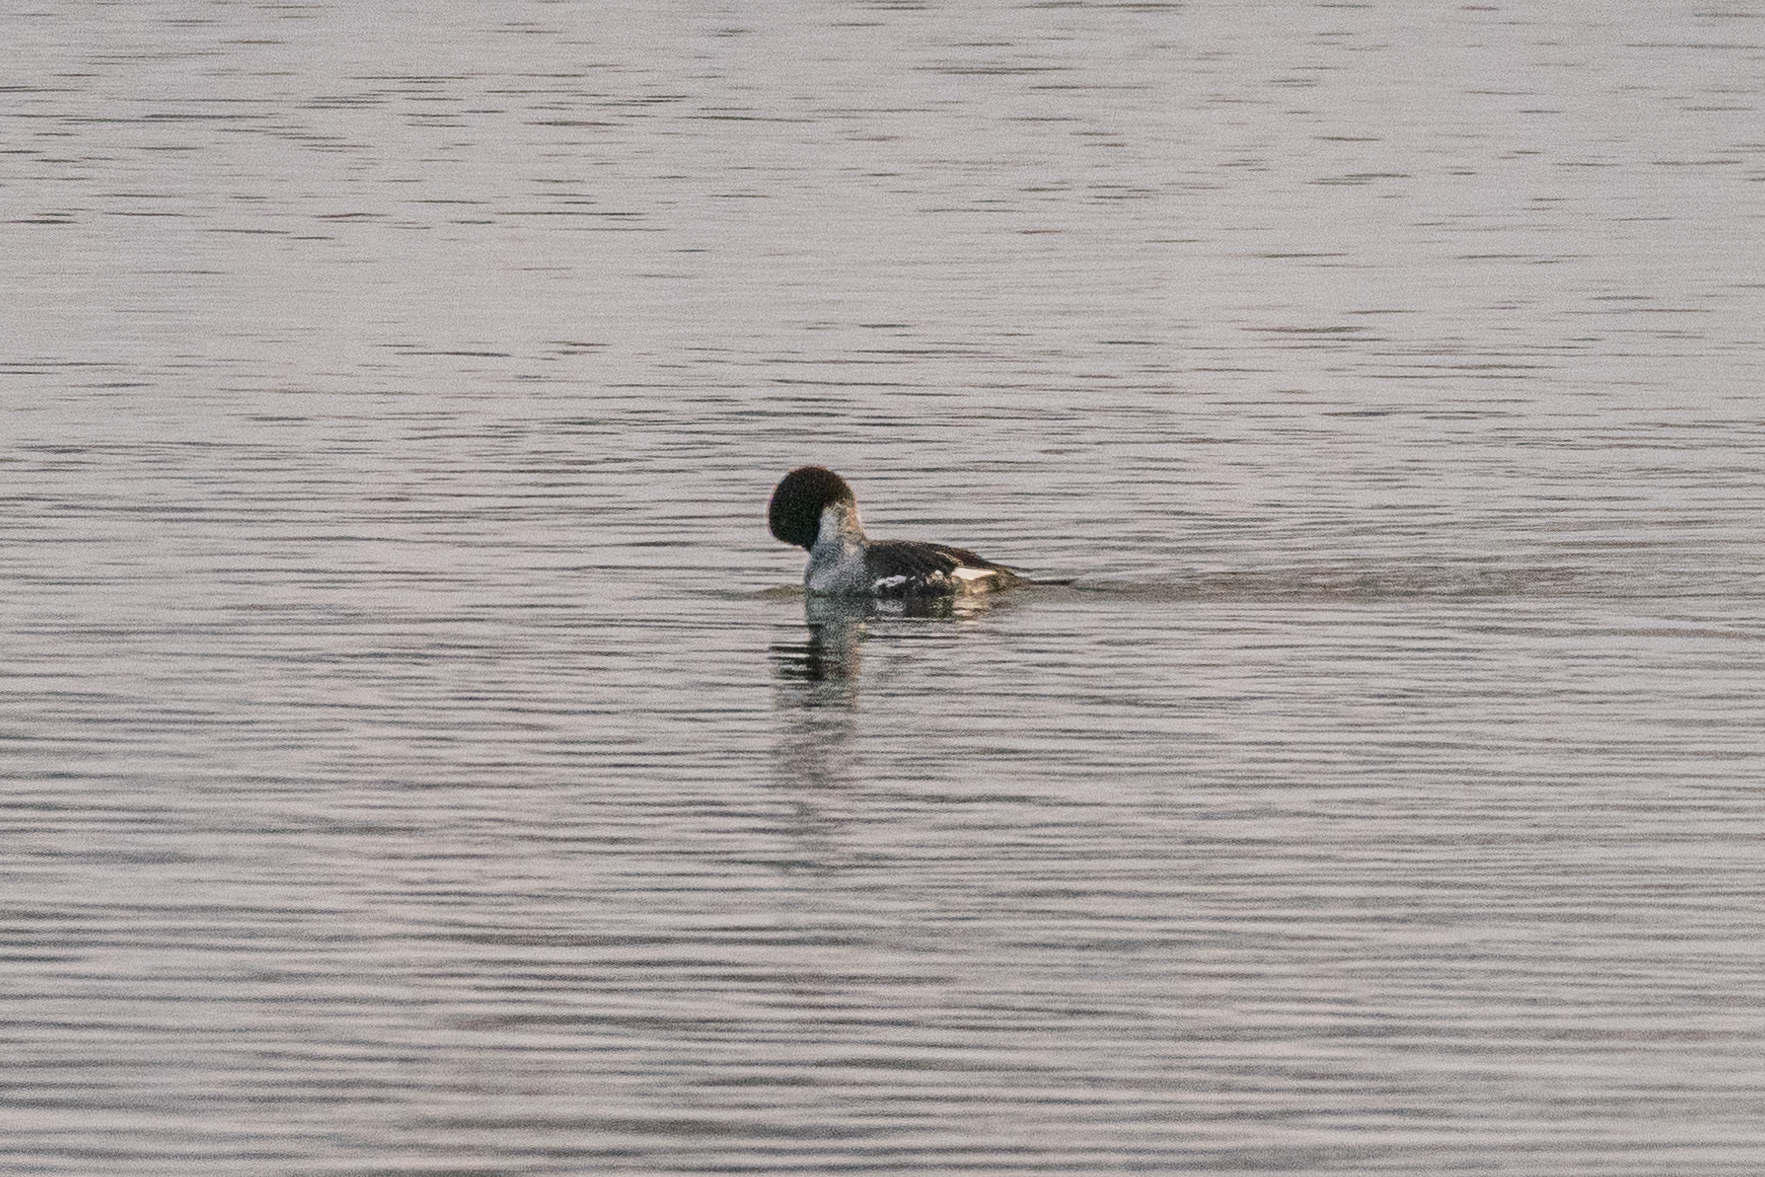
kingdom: Animalia
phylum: Chordata
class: Aves
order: Anseriformes
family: Anatidae
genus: Mergellus
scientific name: Mergellus albellus
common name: Smew
